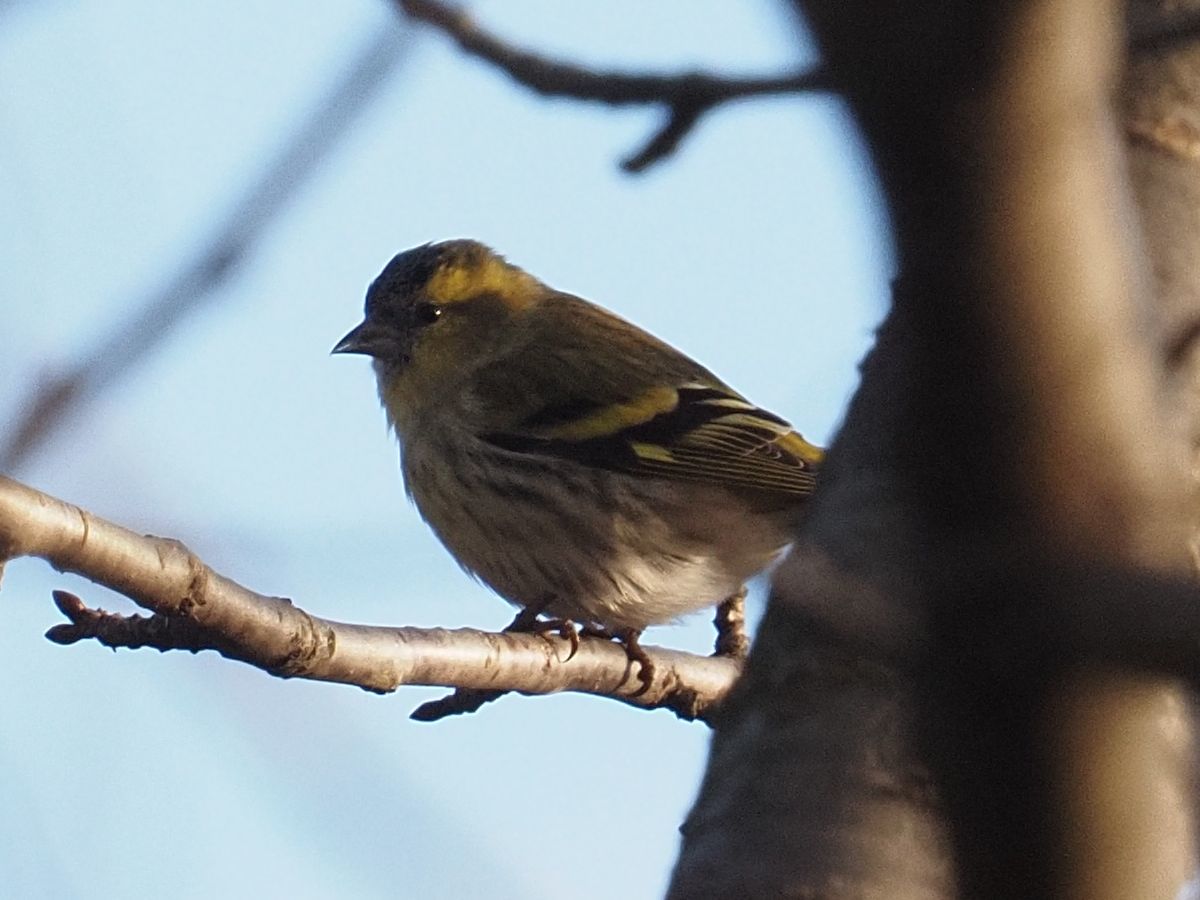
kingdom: Animalia
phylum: Chordata
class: Aves
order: Passeriformes
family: Fringillidae
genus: Spinus
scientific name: Spinus spinus
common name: Eurasian siskin
